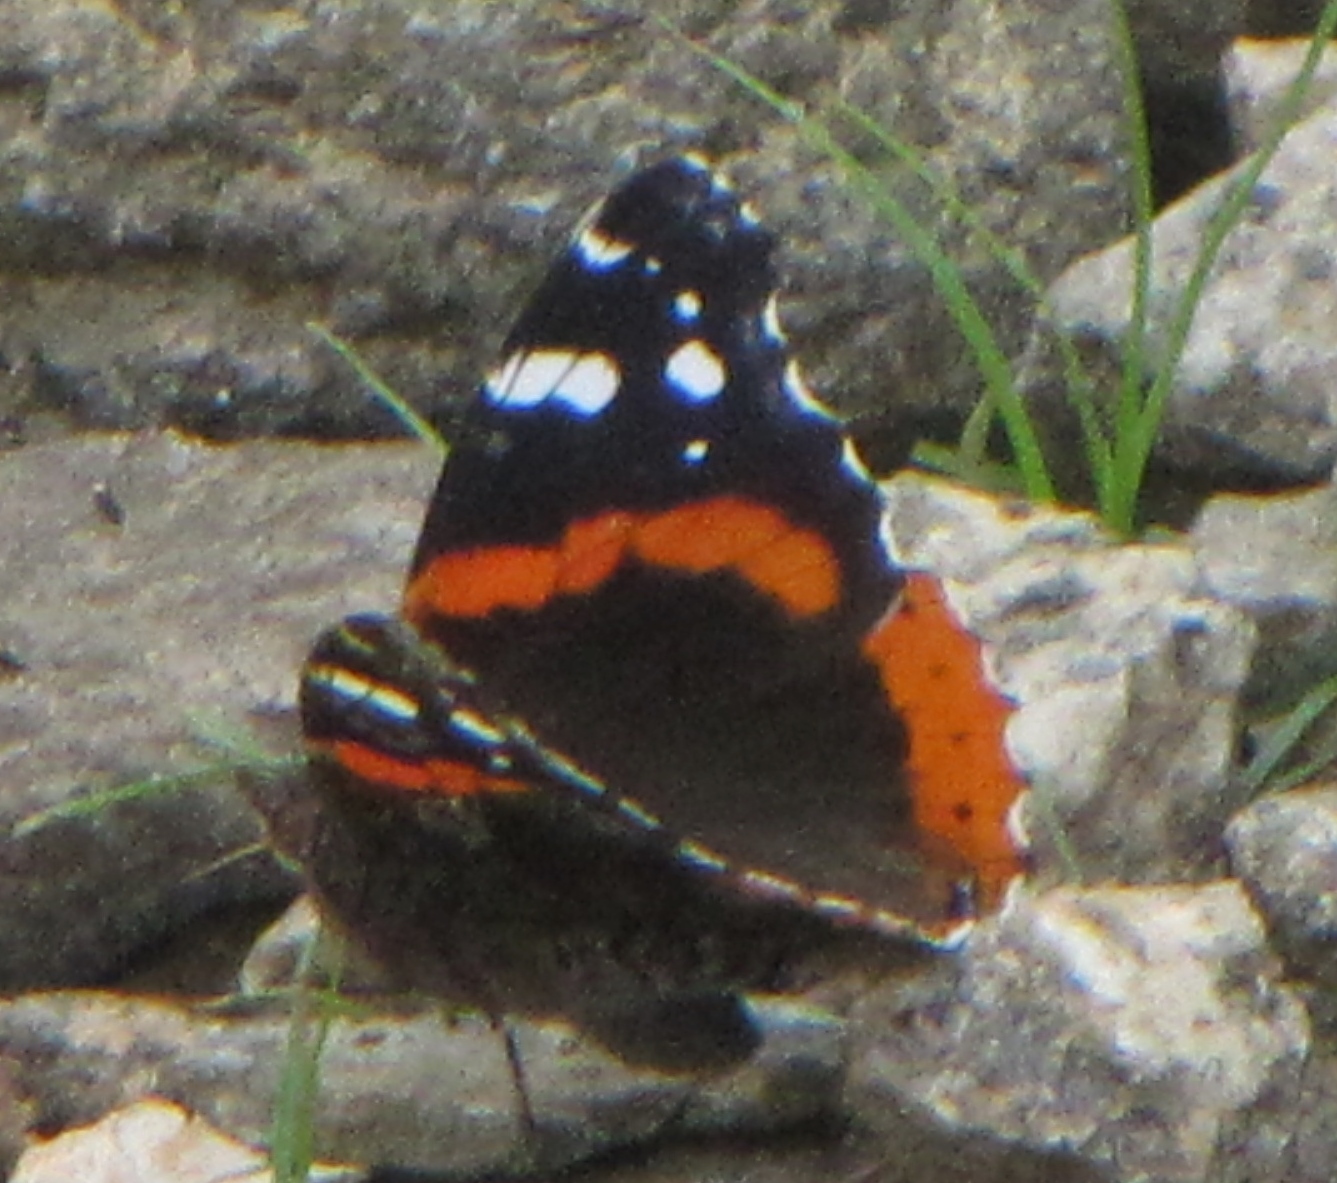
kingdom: Animalia
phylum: Arthropoda
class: Insecta
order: Lepidoptera
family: Nymphalidae
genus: Vanessa
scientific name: Vanessa atalanta
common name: Red admiral
